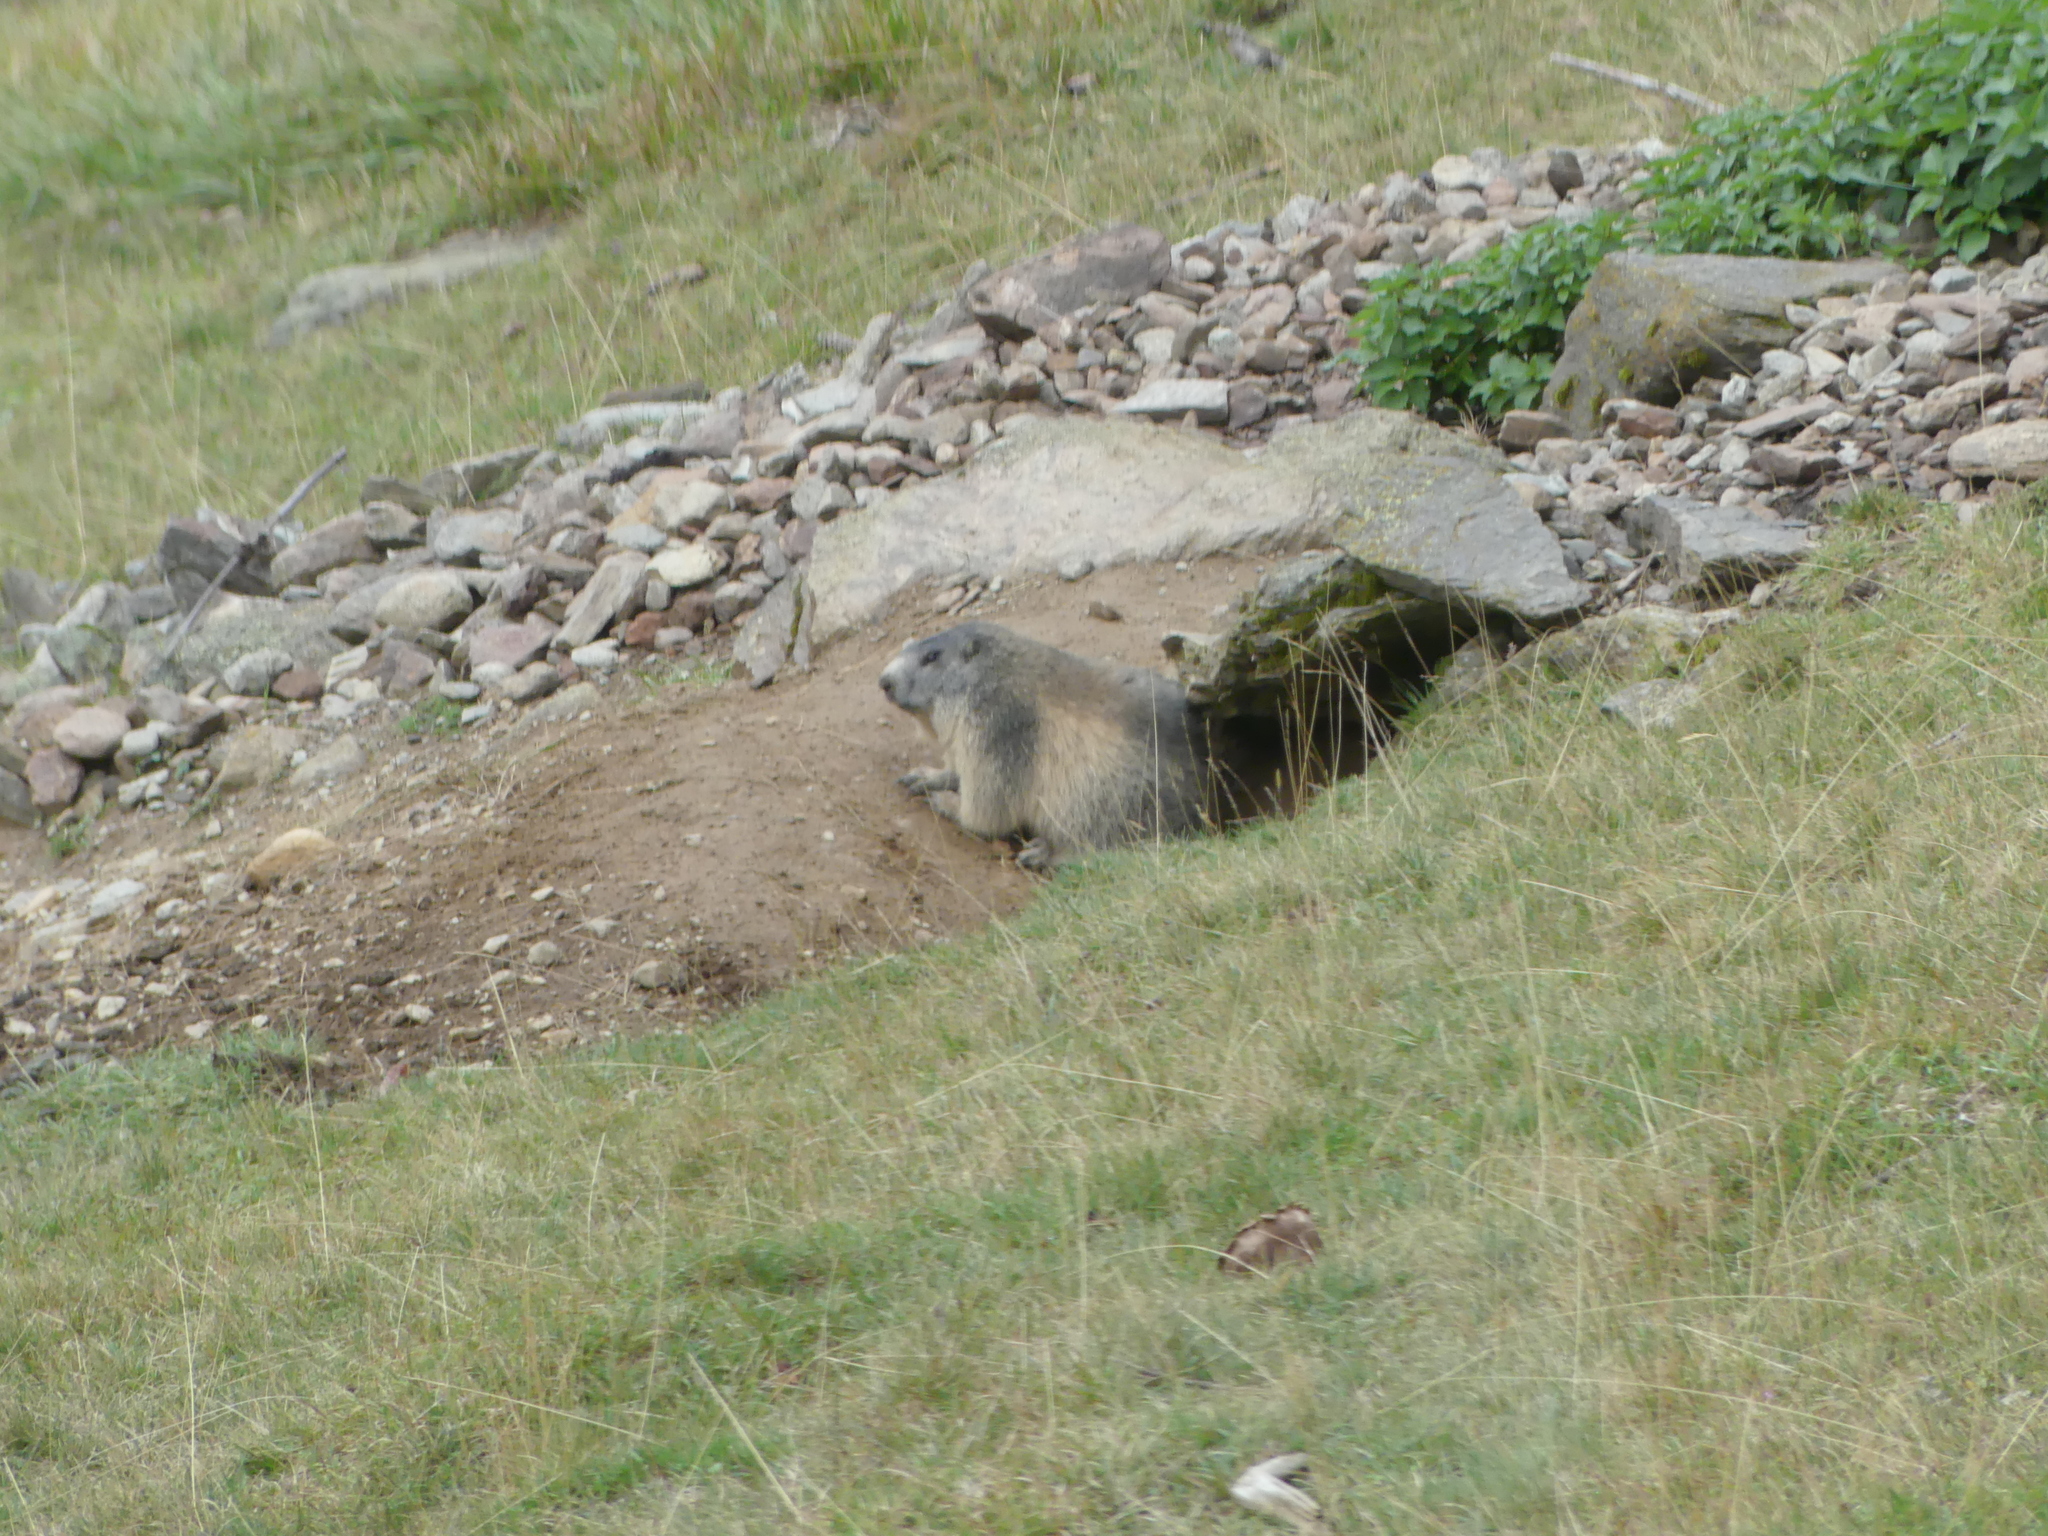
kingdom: Animalia
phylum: Chordata
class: Mammalia
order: Rodentia
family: Sciuridae
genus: Marmota
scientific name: Marmota marmota
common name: Alpine marmot
